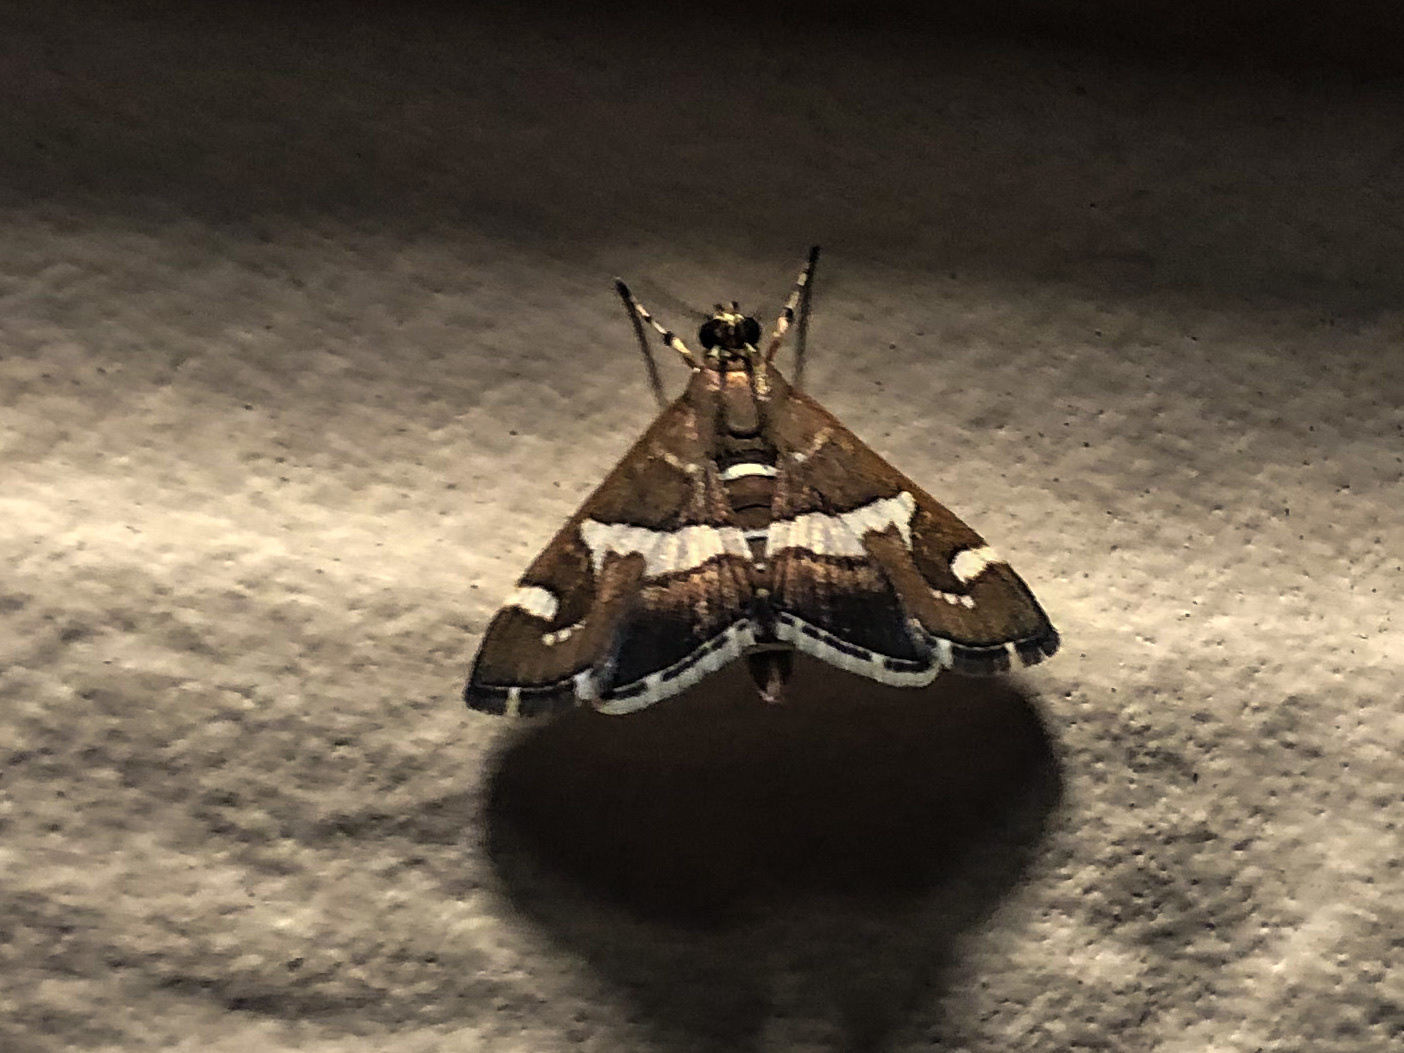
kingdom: Animalia
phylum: Arthropoda
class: Insecta
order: Lepidoptera
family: Crambidae
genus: Spoladea
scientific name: Spoladea recurvalis
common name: Beet webworm moth
